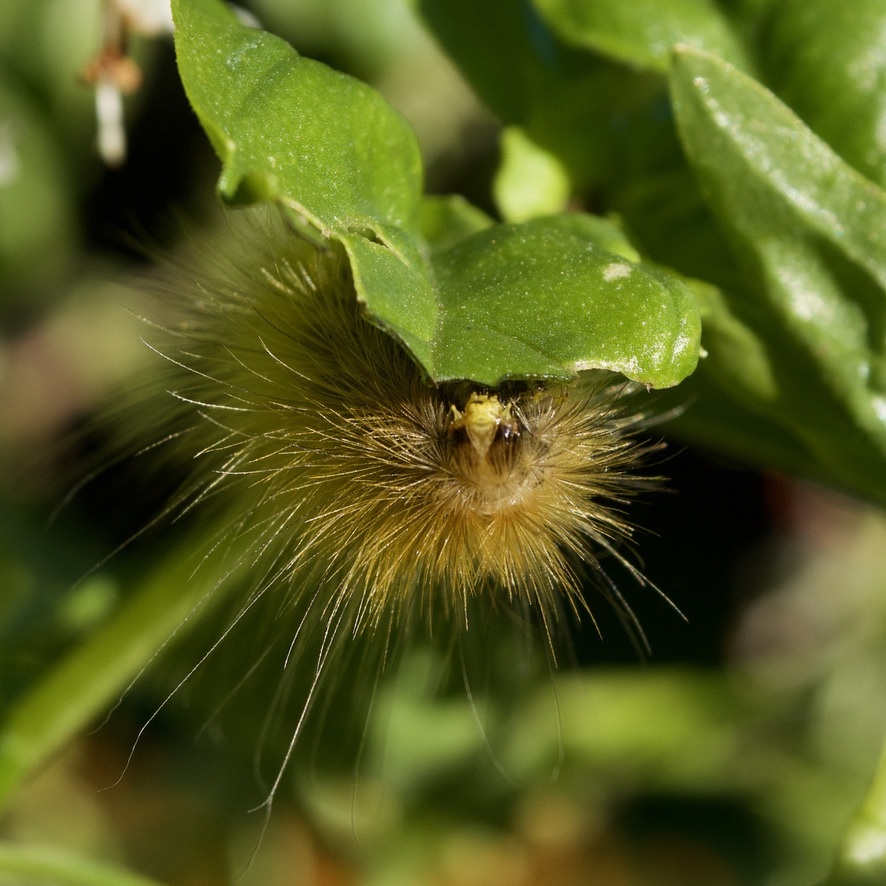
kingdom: Animalia
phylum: Arthropoda
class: Insecta
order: Lepidoptera
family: Erebidae
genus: Spilosoma
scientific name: Spilosoma virginica
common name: Virginia tiger moth
